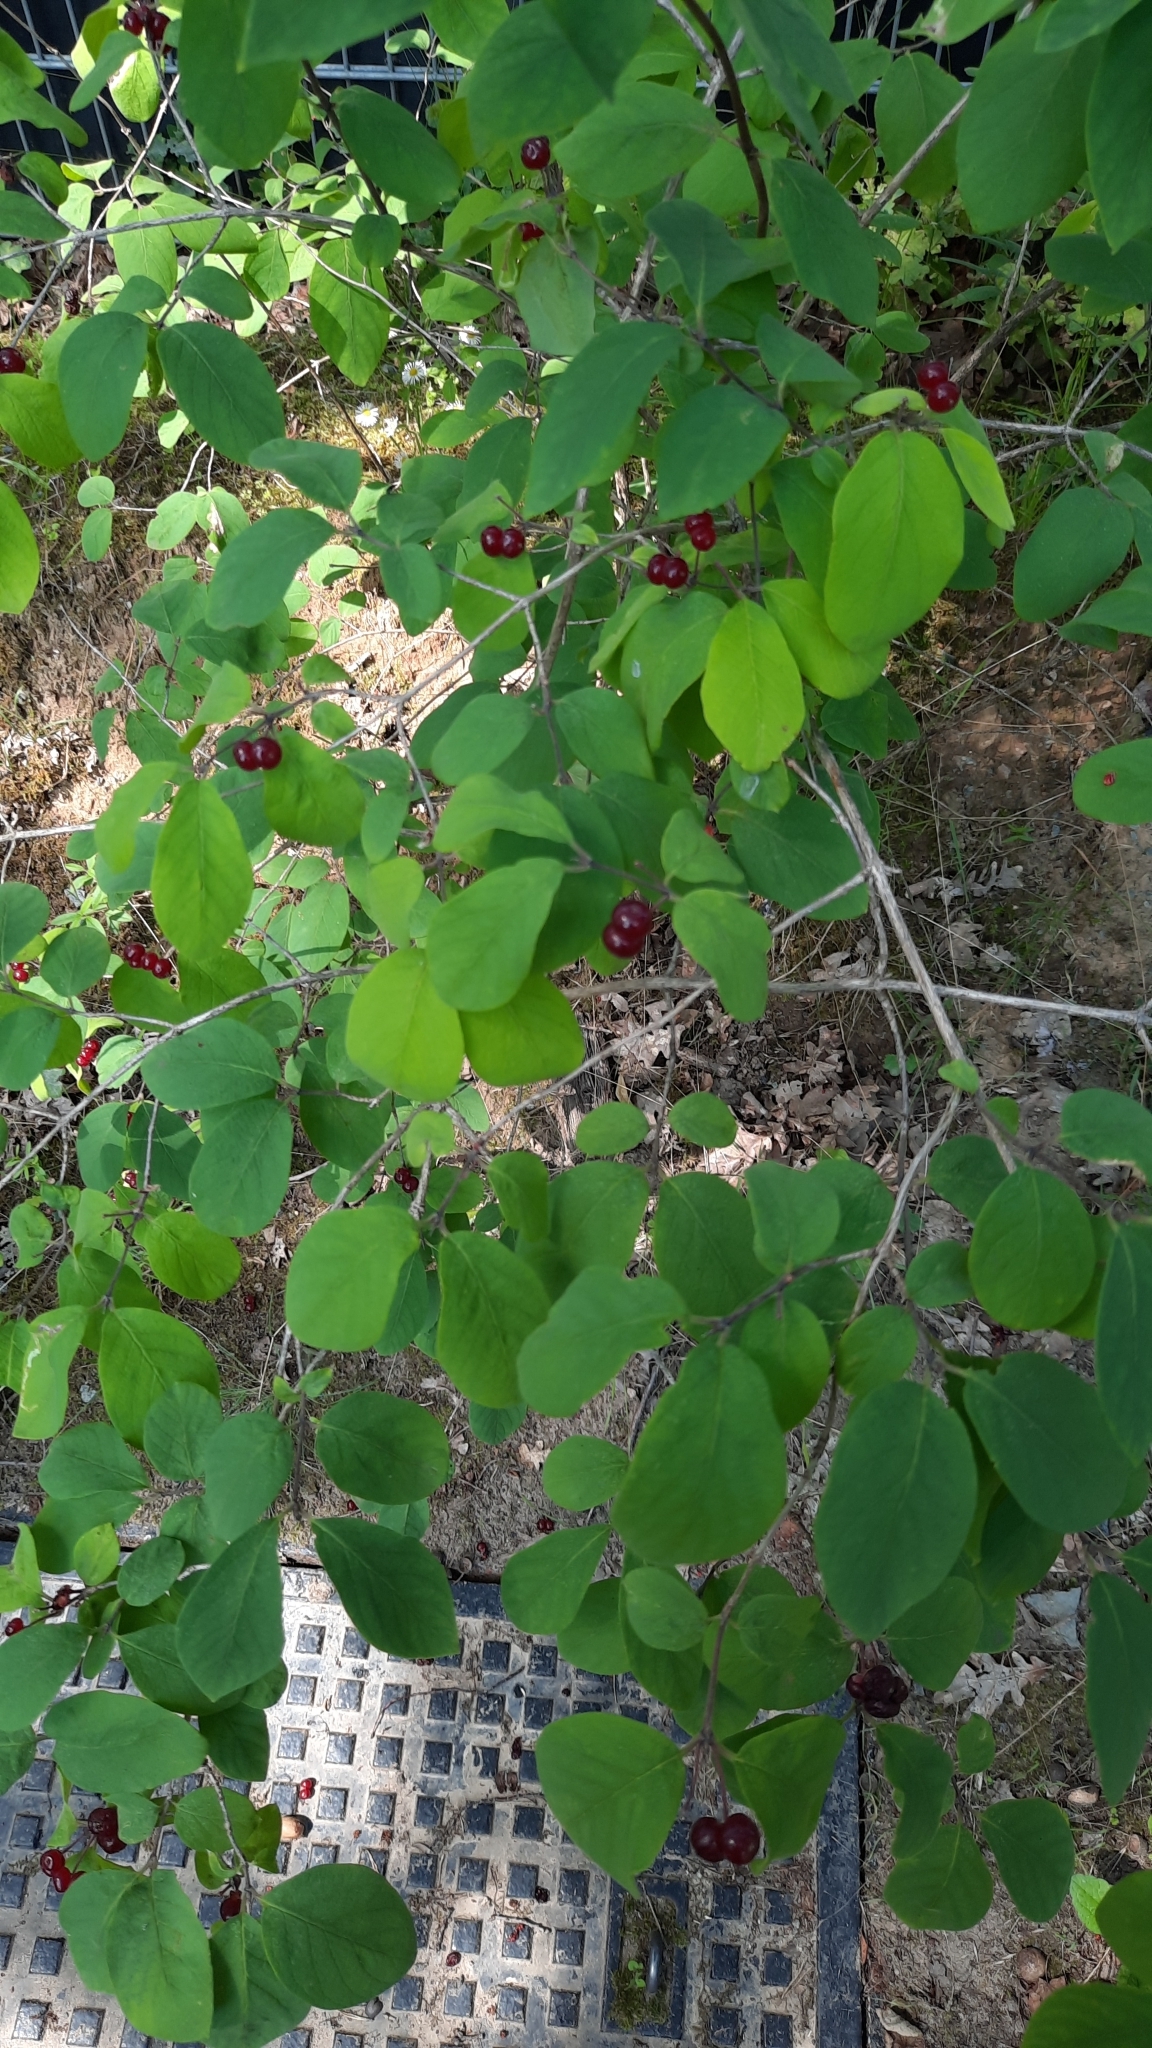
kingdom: Plantae
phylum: Tracheophyta
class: Magnoliopsida
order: Dipsacales
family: Caprifoliaceae
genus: Lonicera
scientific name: Lonicera xylosteum
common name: Fly honeysuckle
